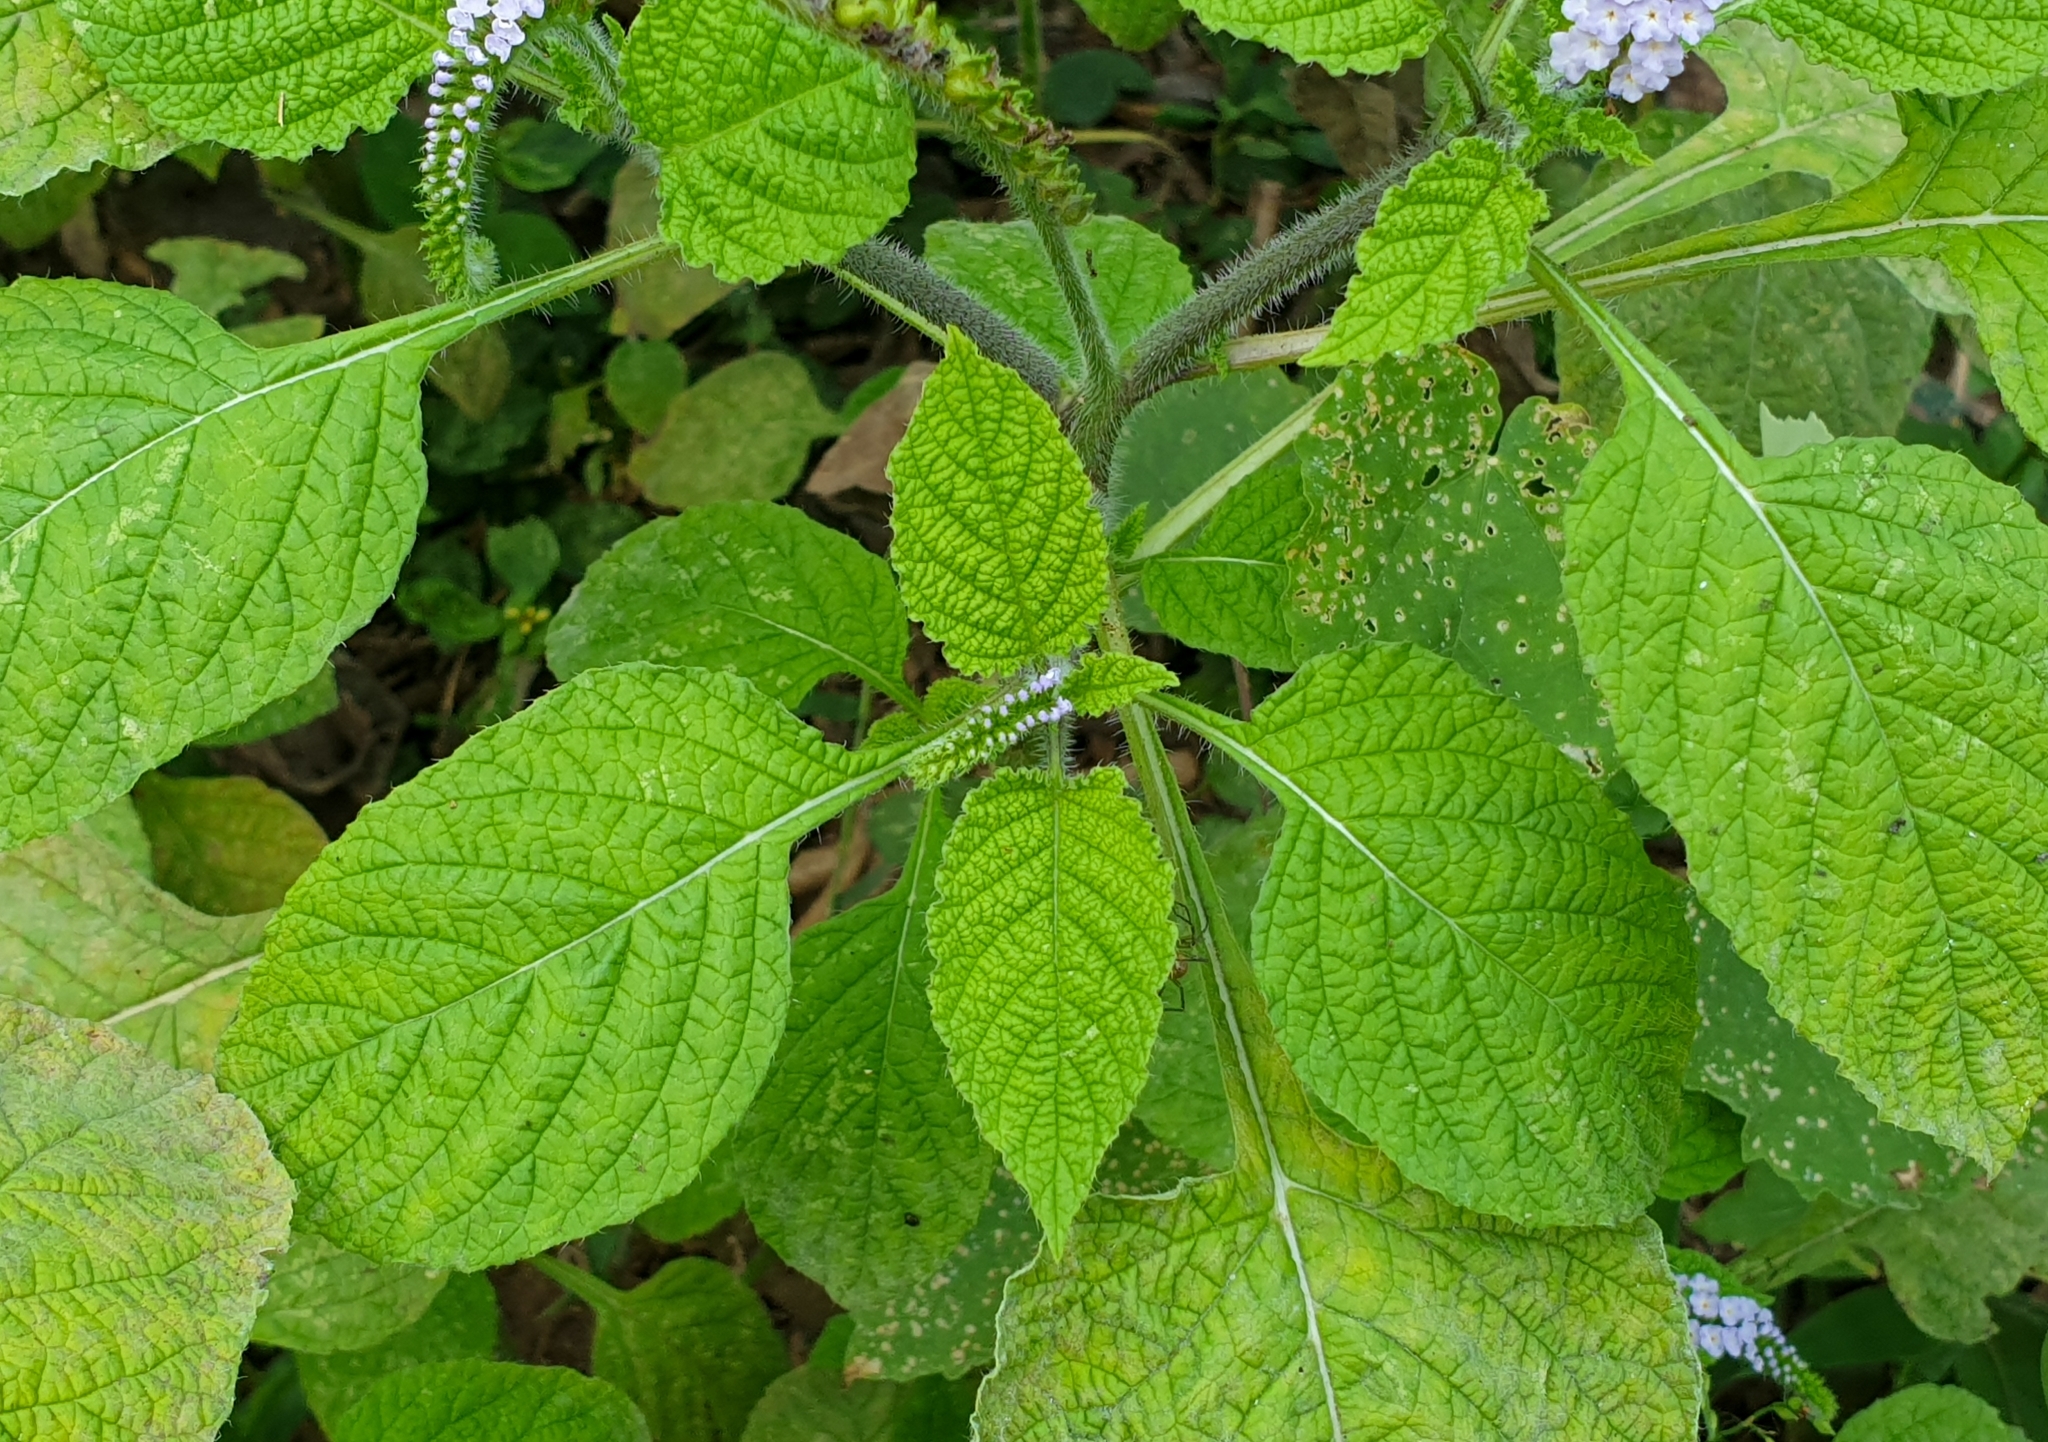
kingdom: Plantae
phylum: Tracheophyta
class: Magnoliopsida
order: Boraginales
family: Heliotropiaceae
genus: Heliotropium
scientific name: Heliotropium indicum
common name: Indian heliotrope
